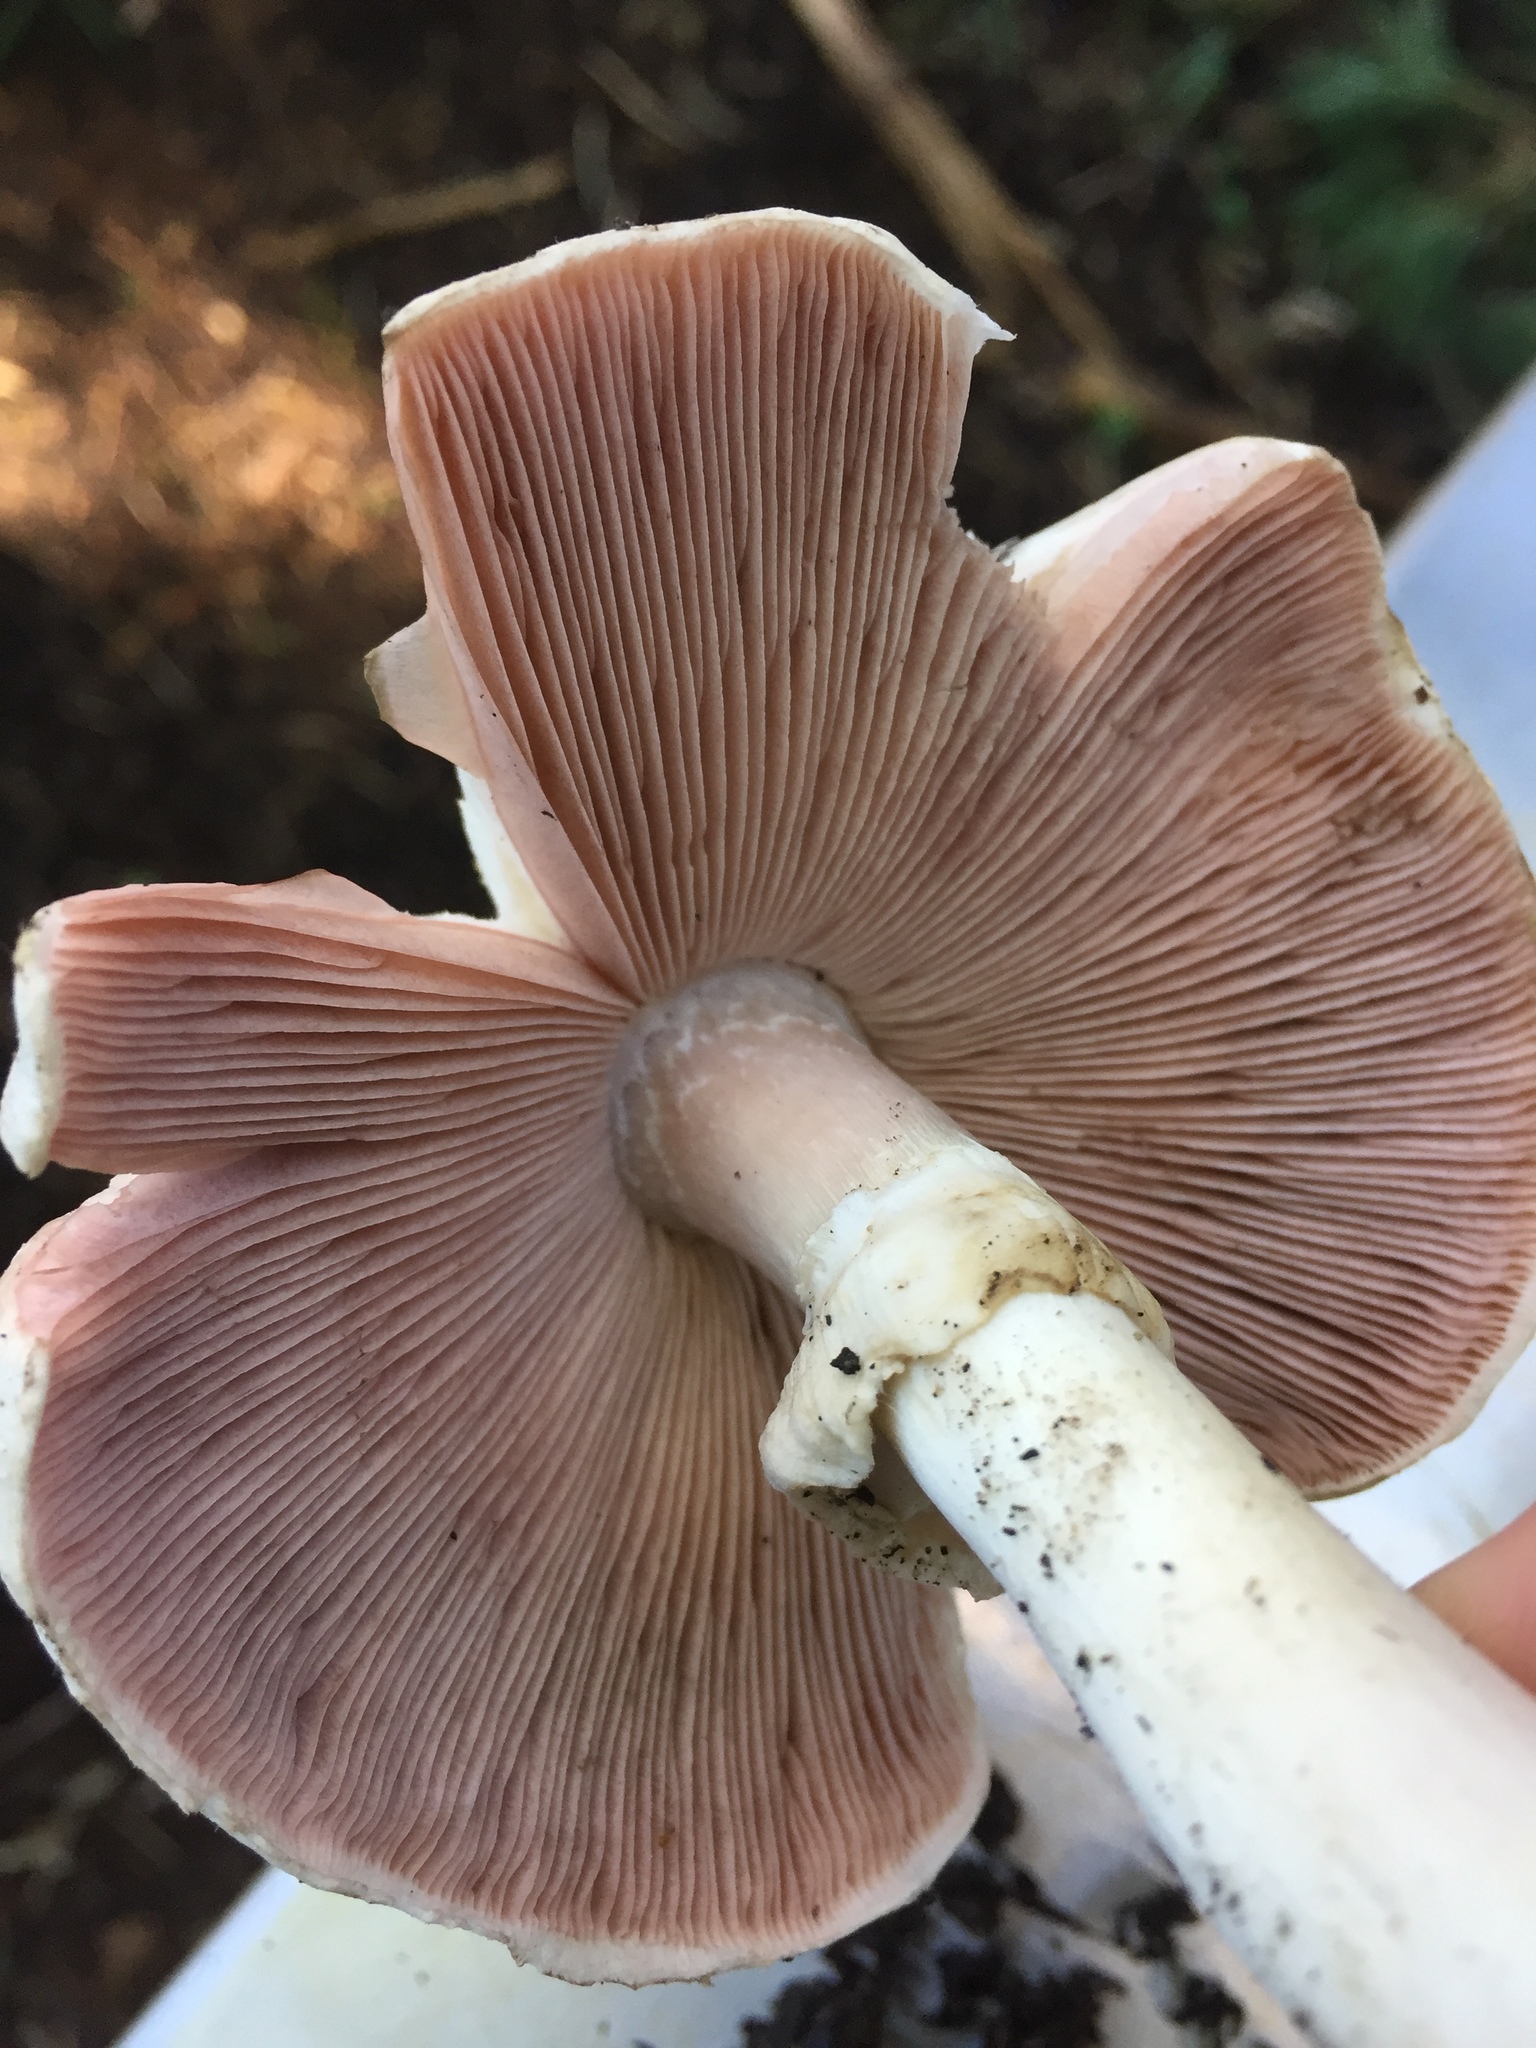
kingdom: Fungi
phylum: Basidiomycota
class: Agaricomycetes
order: Agaricales
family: Agaricaceae
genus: Agaricus
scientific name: Agaricus californicus
